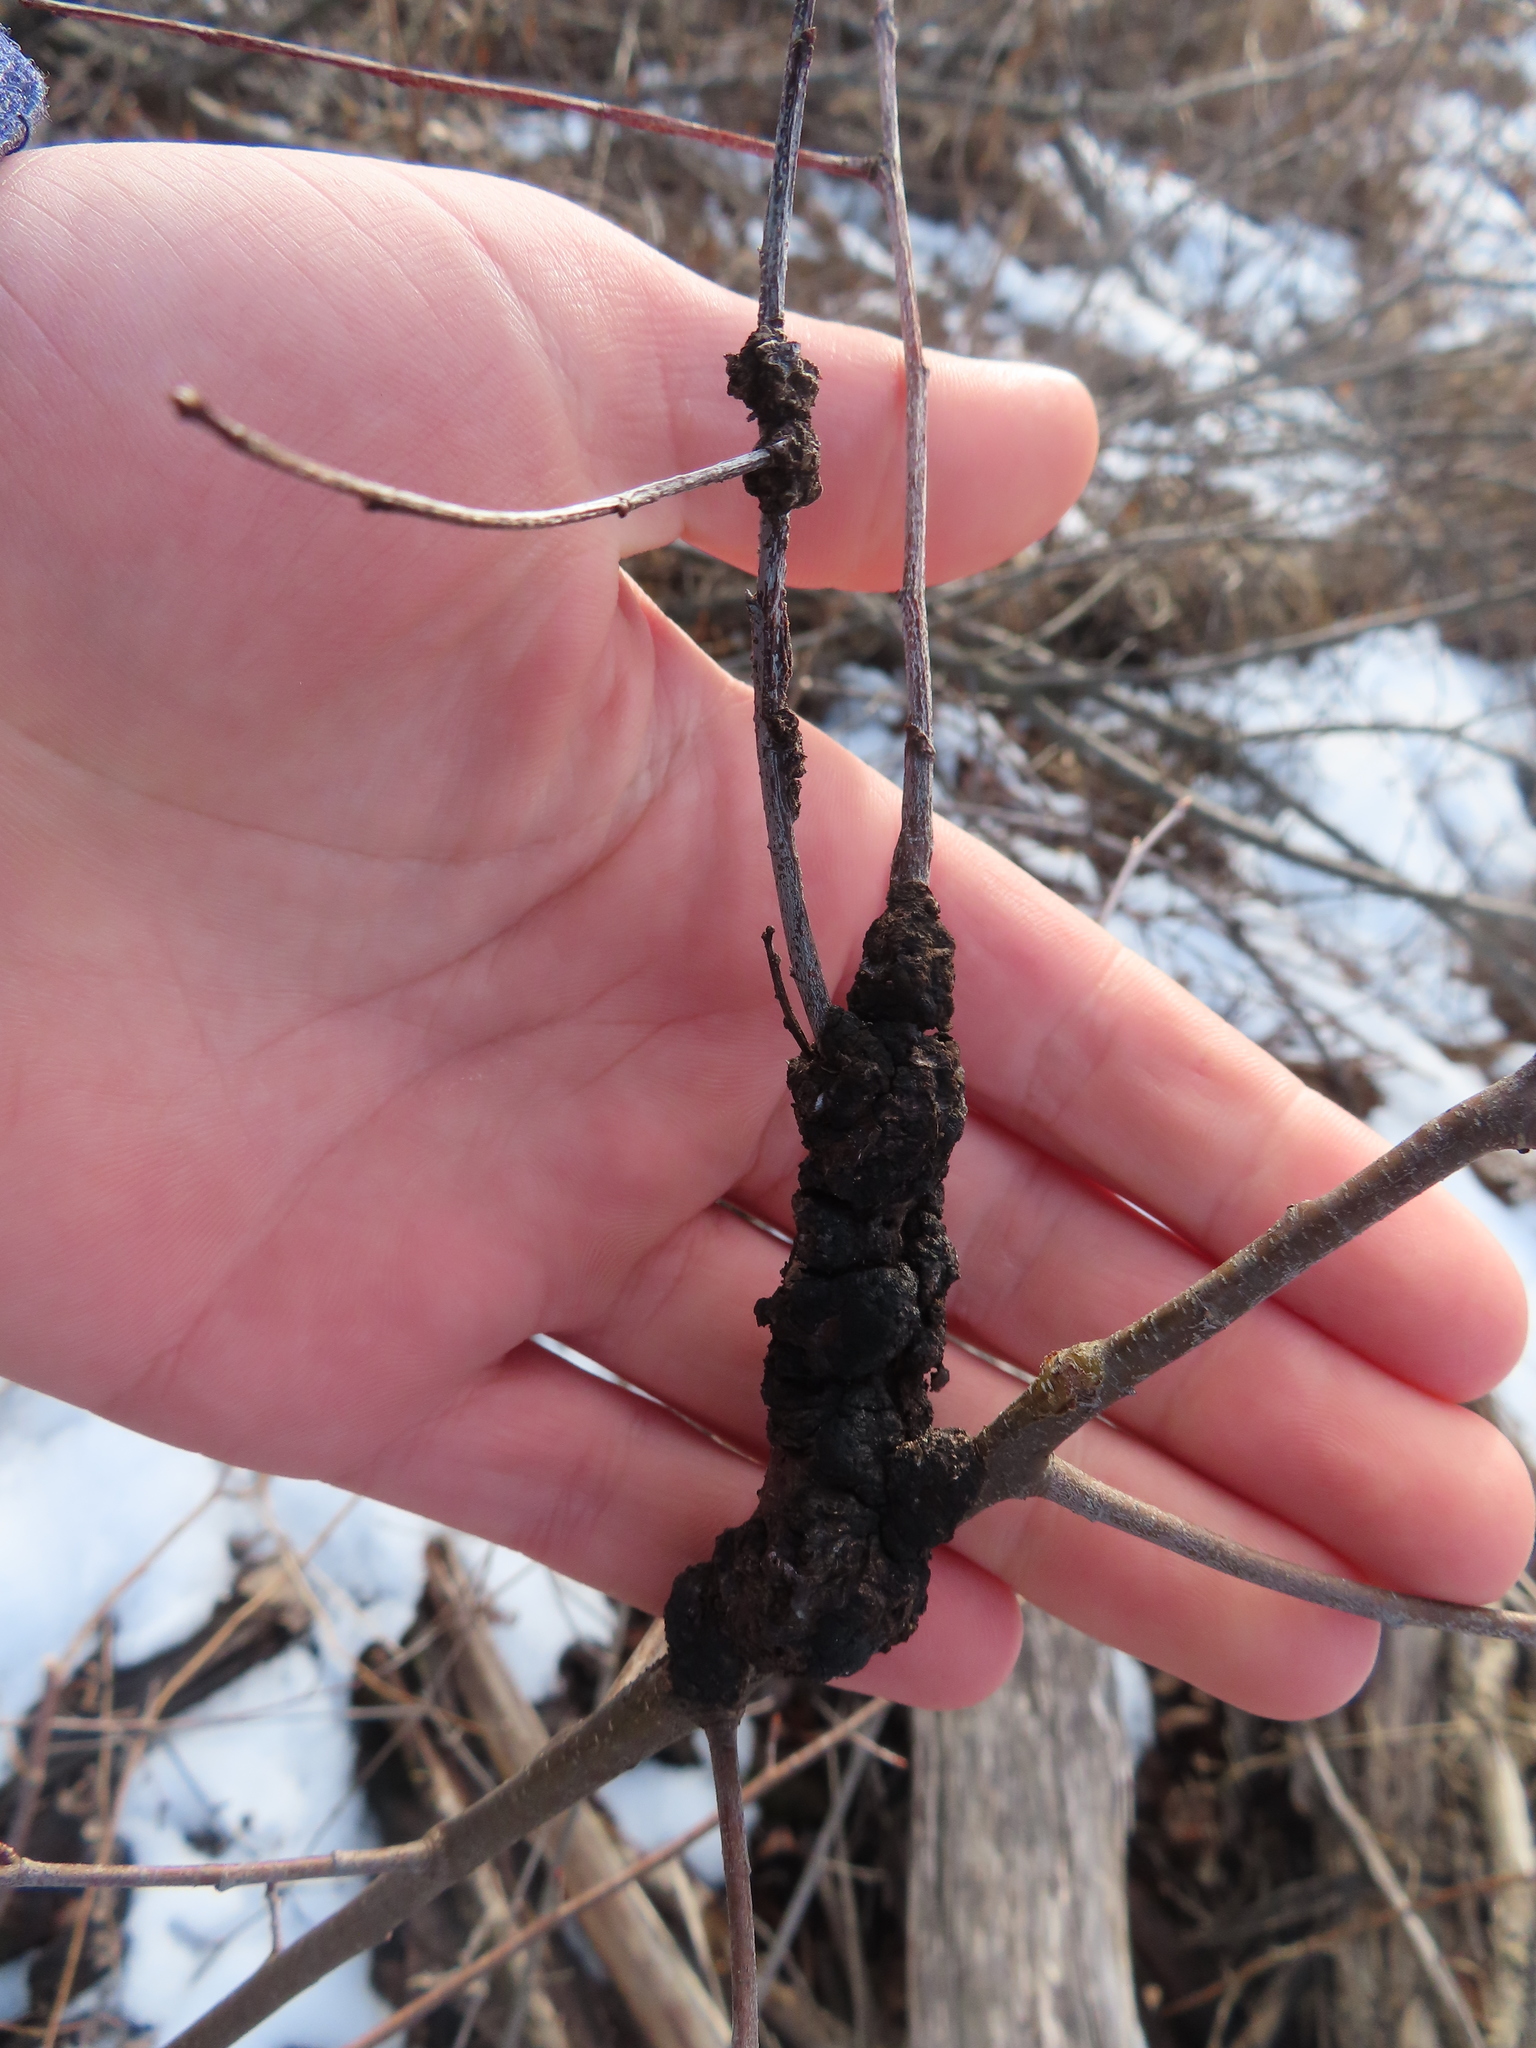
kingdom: Fungi
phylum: Ascomycota
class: Dothideomycetes
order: Venturiales
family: Venturiaceae
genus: Apiosporina
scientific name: Apiosporina morbosa
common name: Black knot
